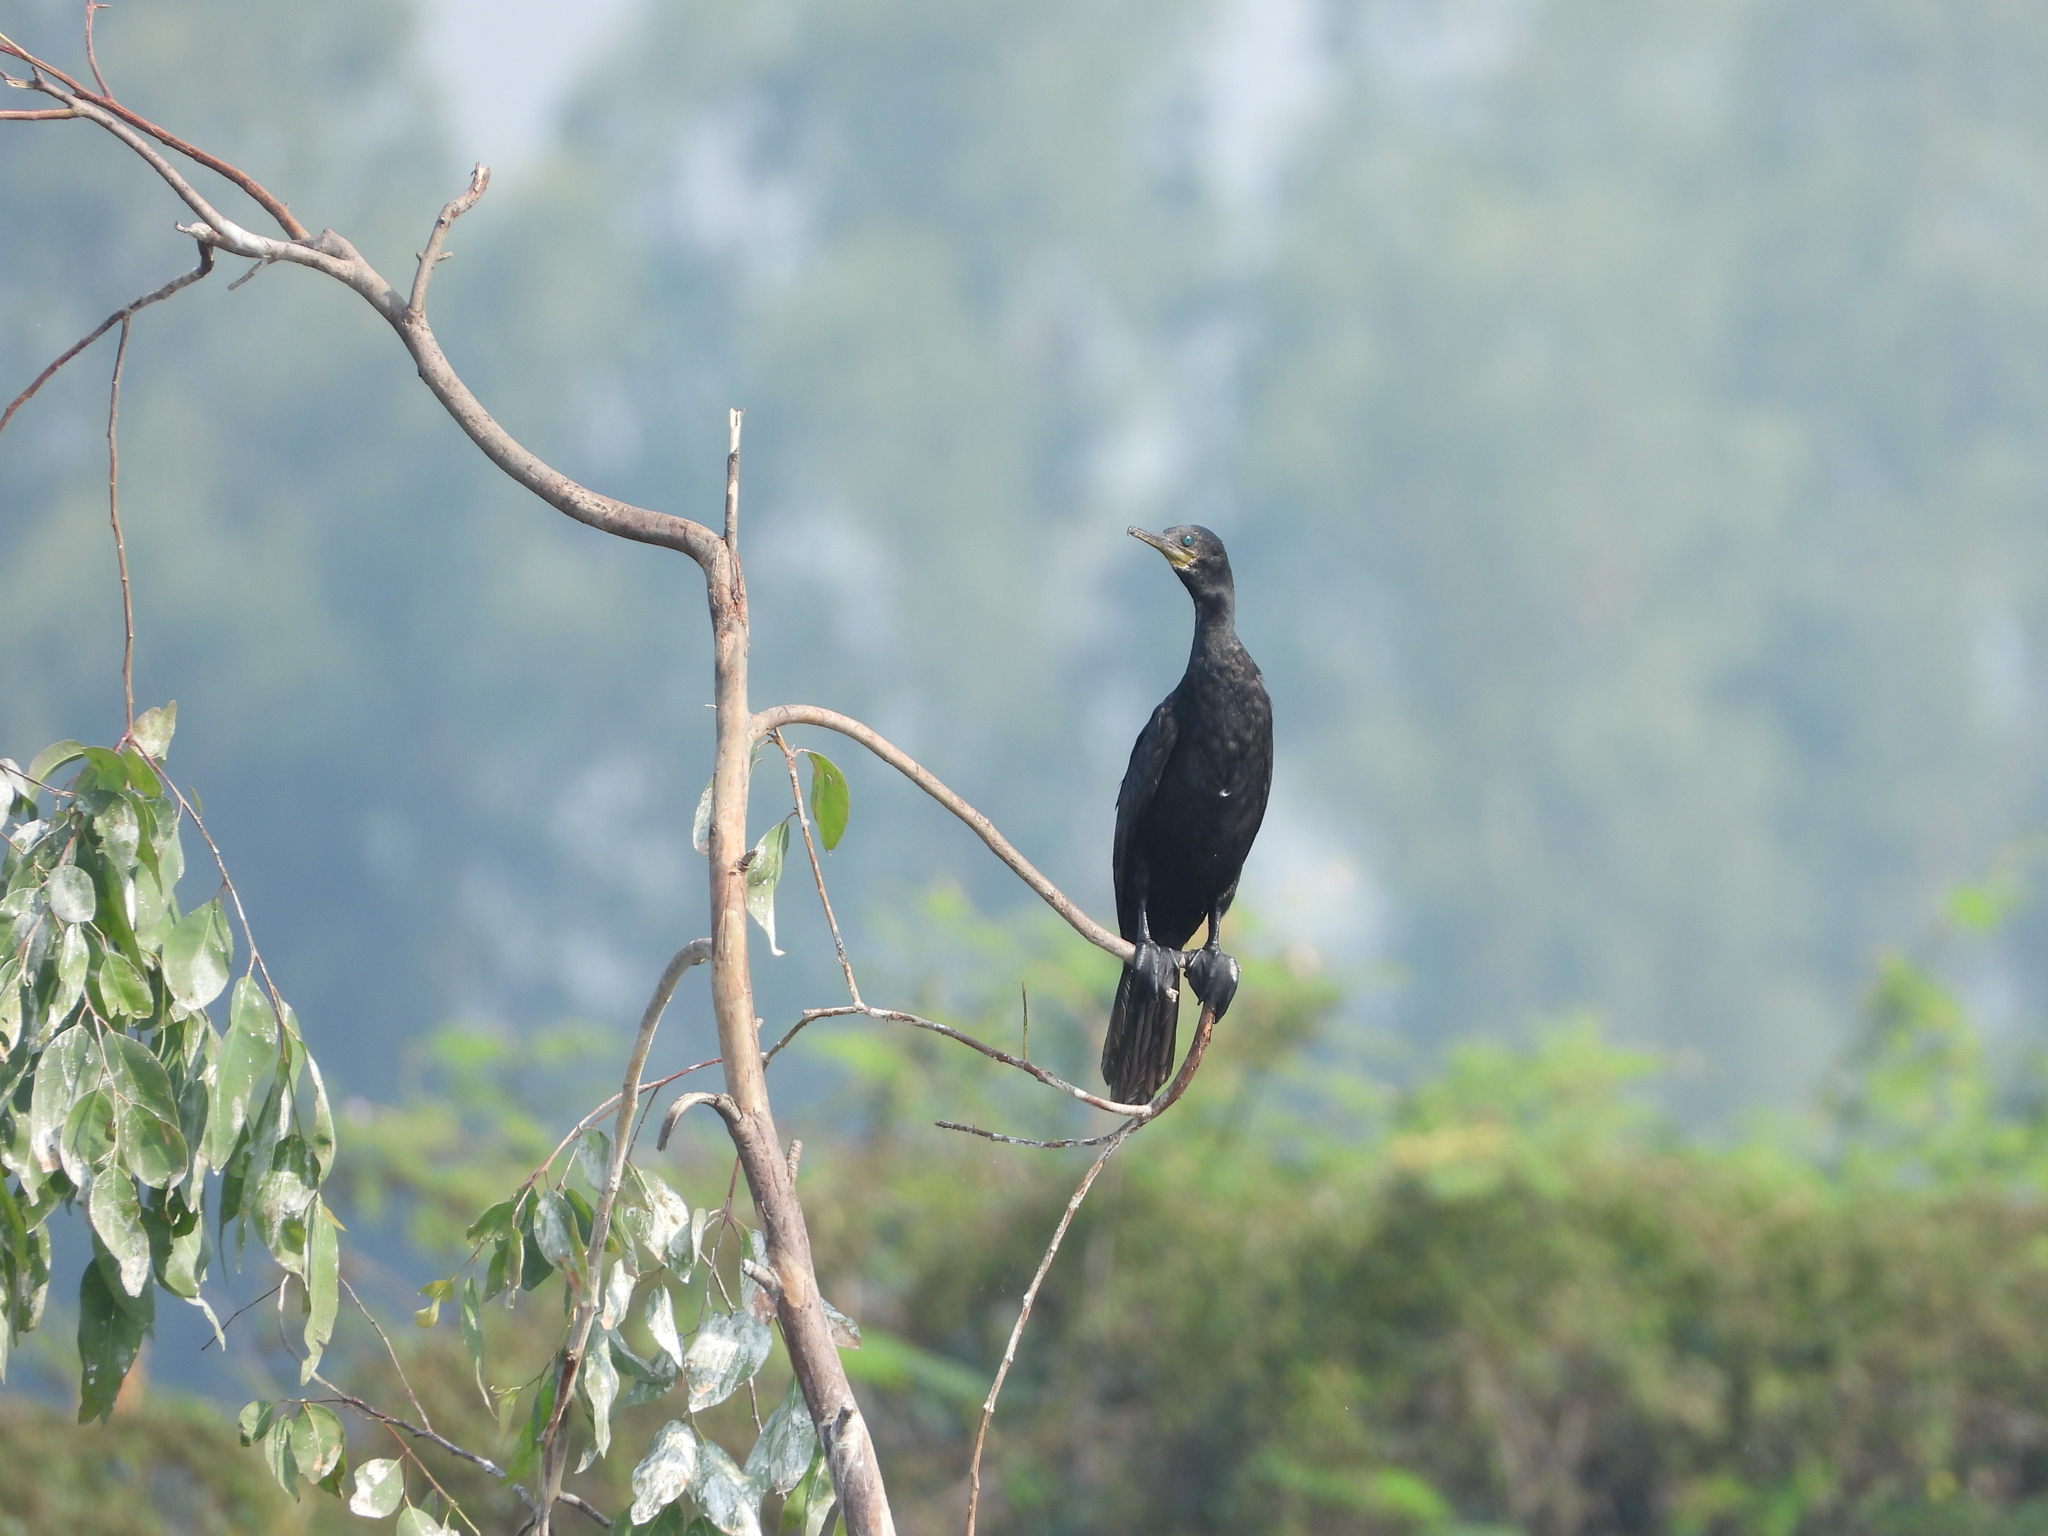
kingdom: Animalia
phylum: Chordata
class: Aves
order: Suliformes
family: Phalacrocoracidae
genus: Phalacrocorax
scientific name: Phalacrocorax fuscicollis
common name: Indian cormorant
